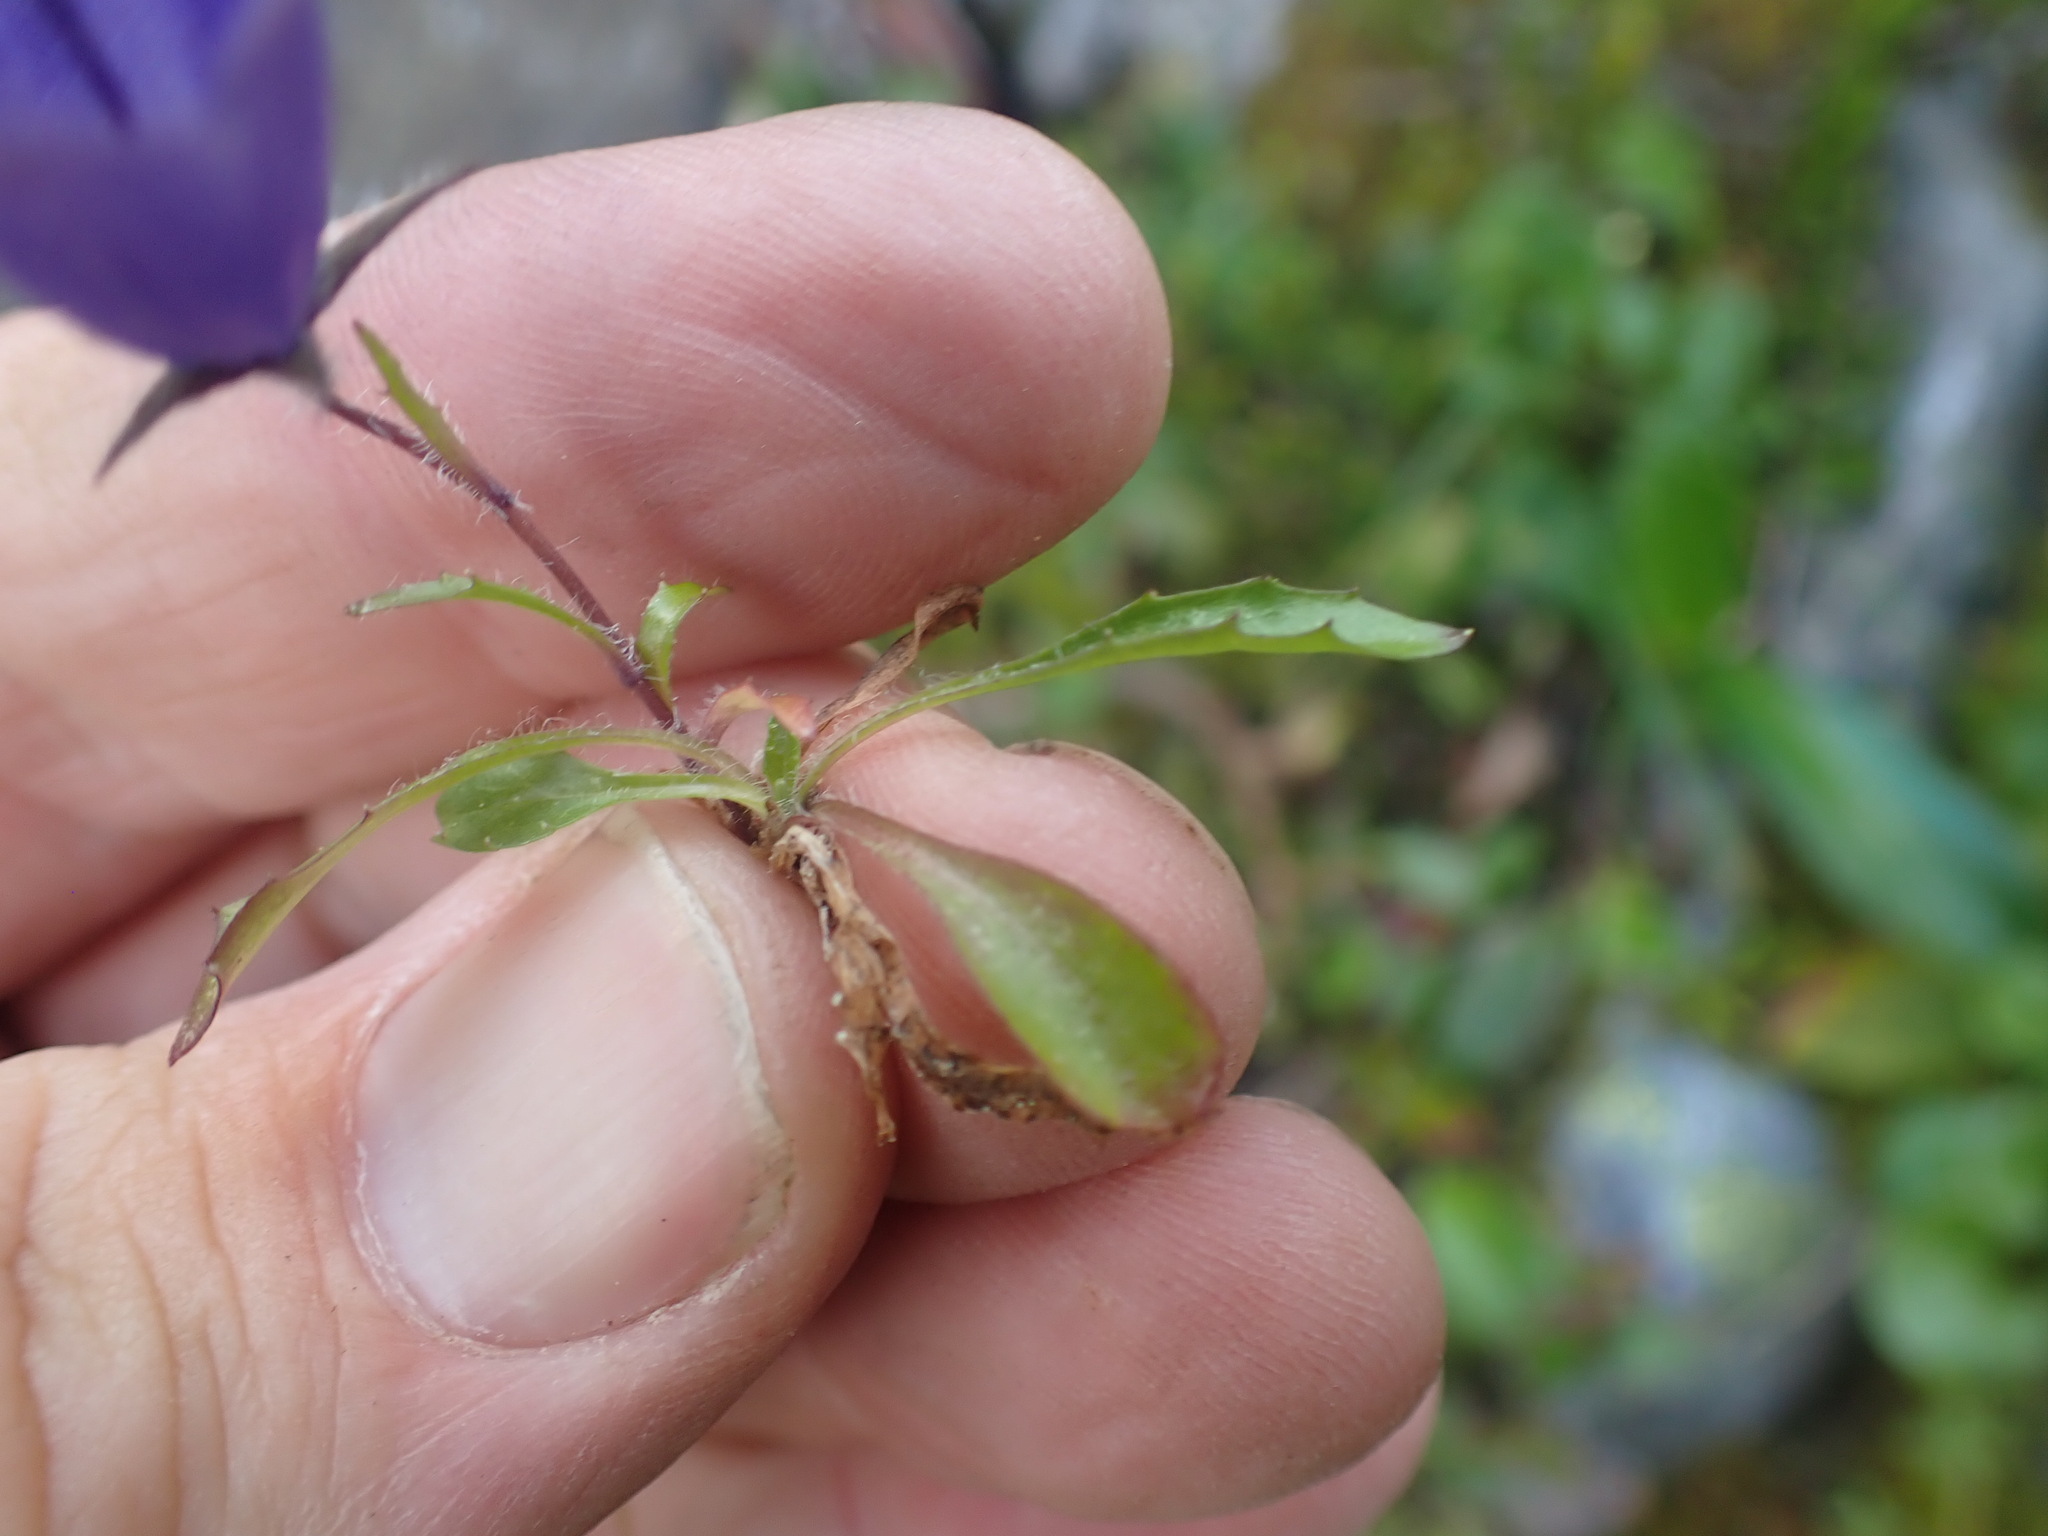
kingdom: Plantae
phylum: Tracheophyta
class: Magnoliopsida
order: Asterales
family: Campanulaceae
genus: Campanula
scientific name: Campanula lasiocarpa
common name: Mountain harebell
